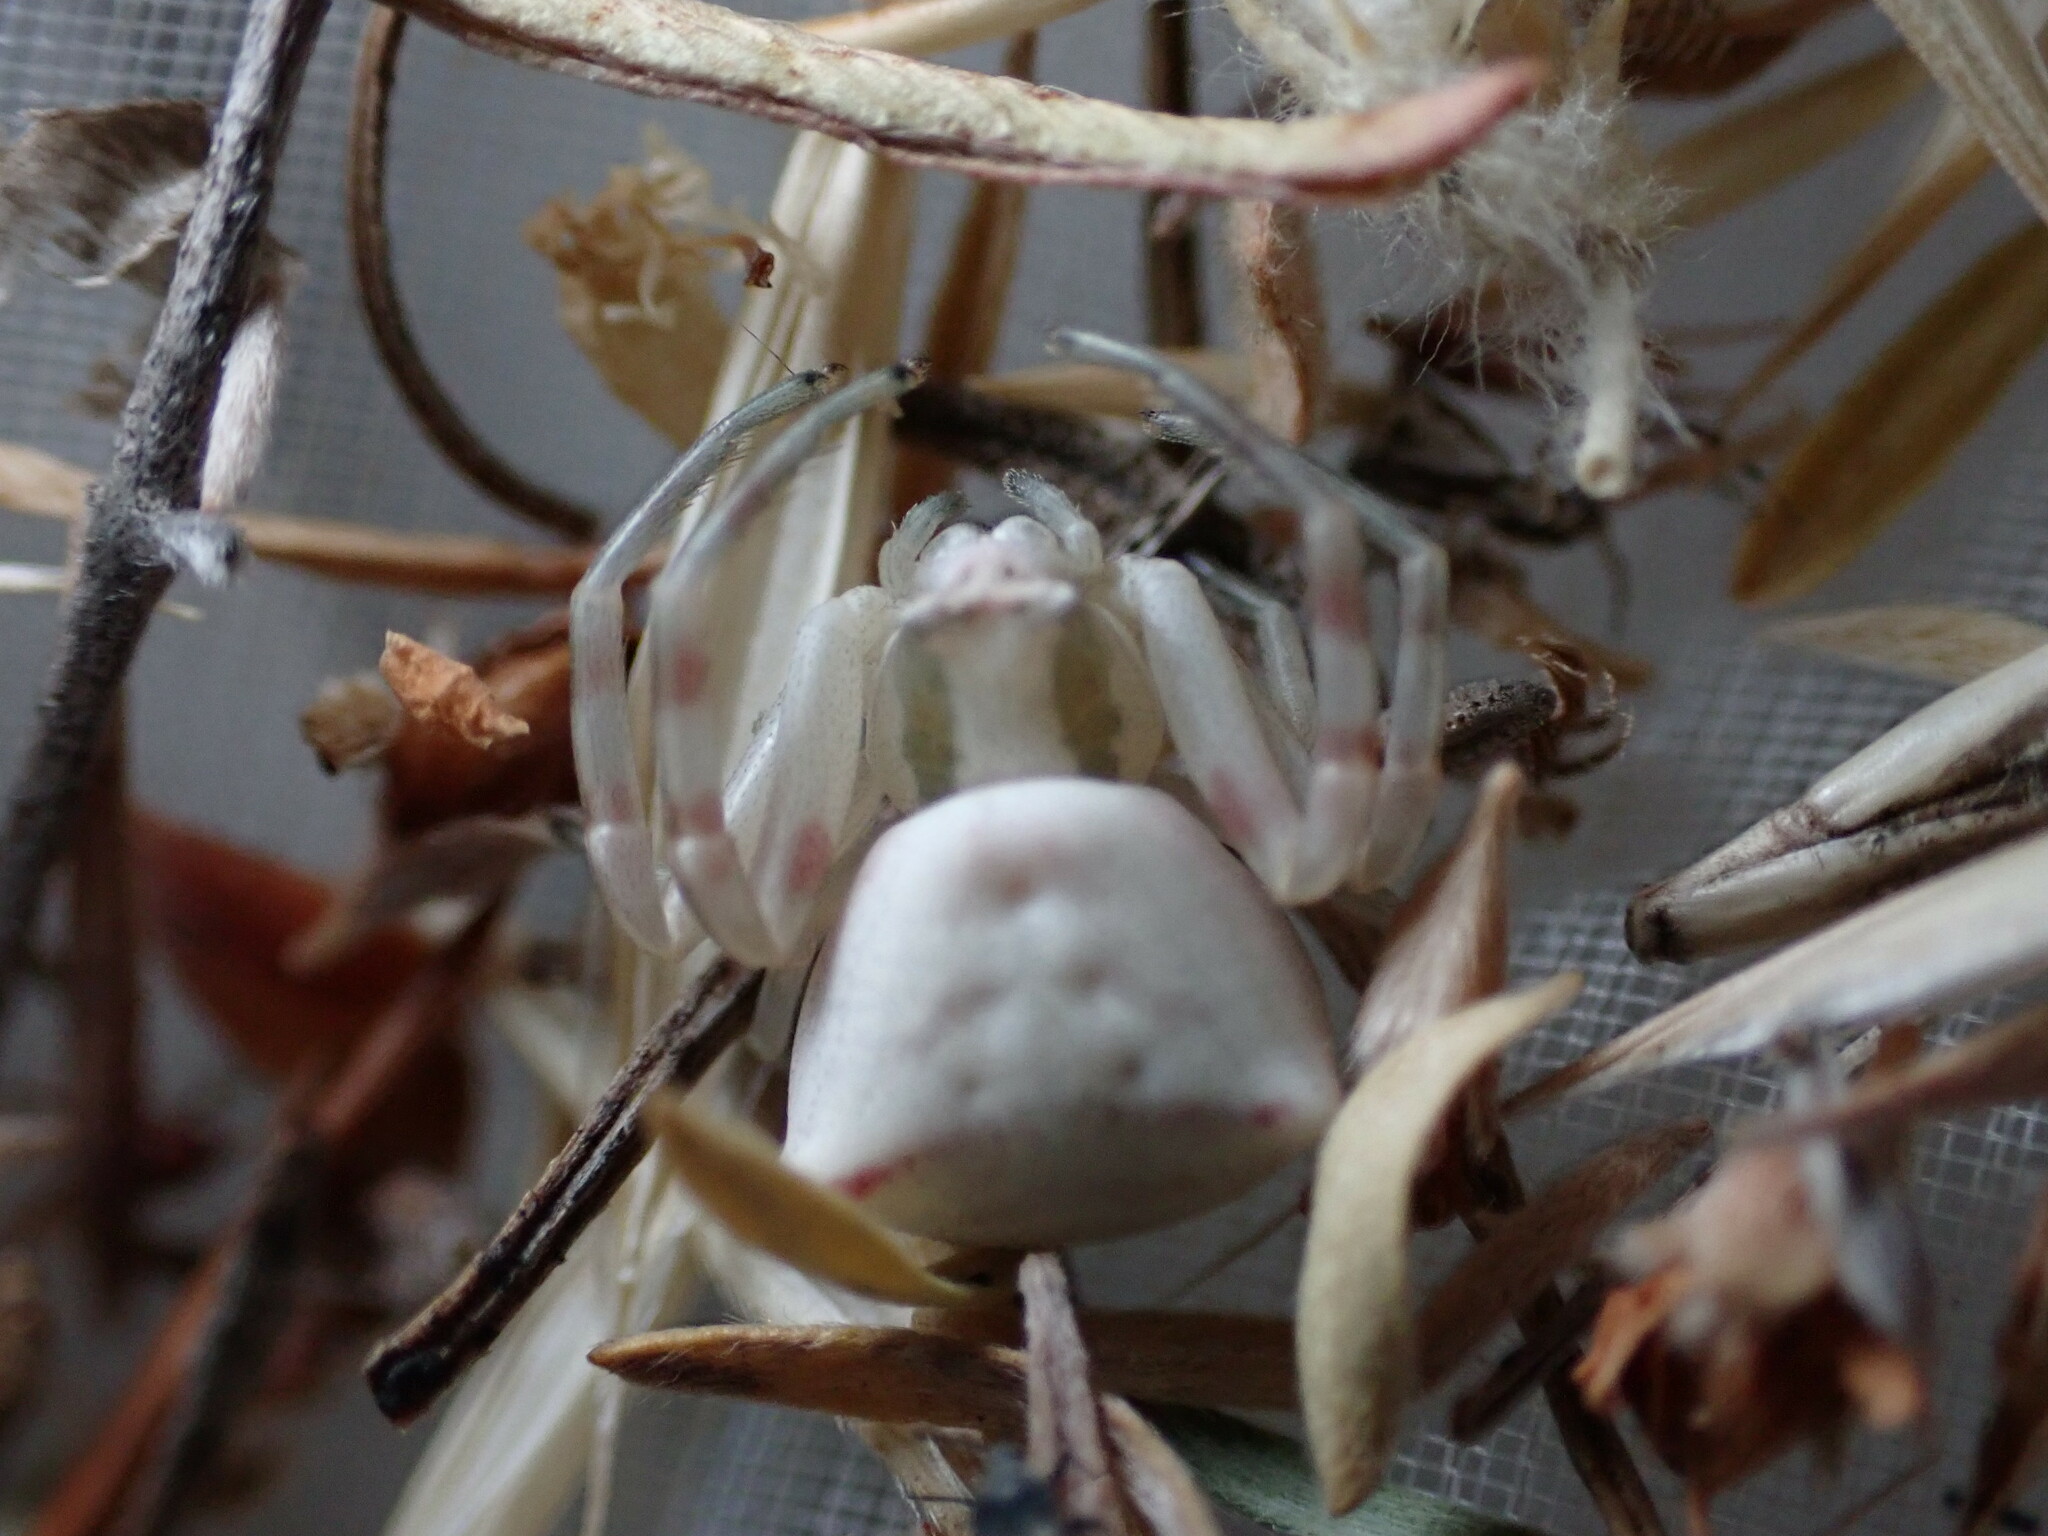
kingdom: Animalia
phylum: Arthropoda
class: Arachnida
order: Araneae
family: Thomisidae
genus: Thomisus
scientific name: Thomisus onustus
